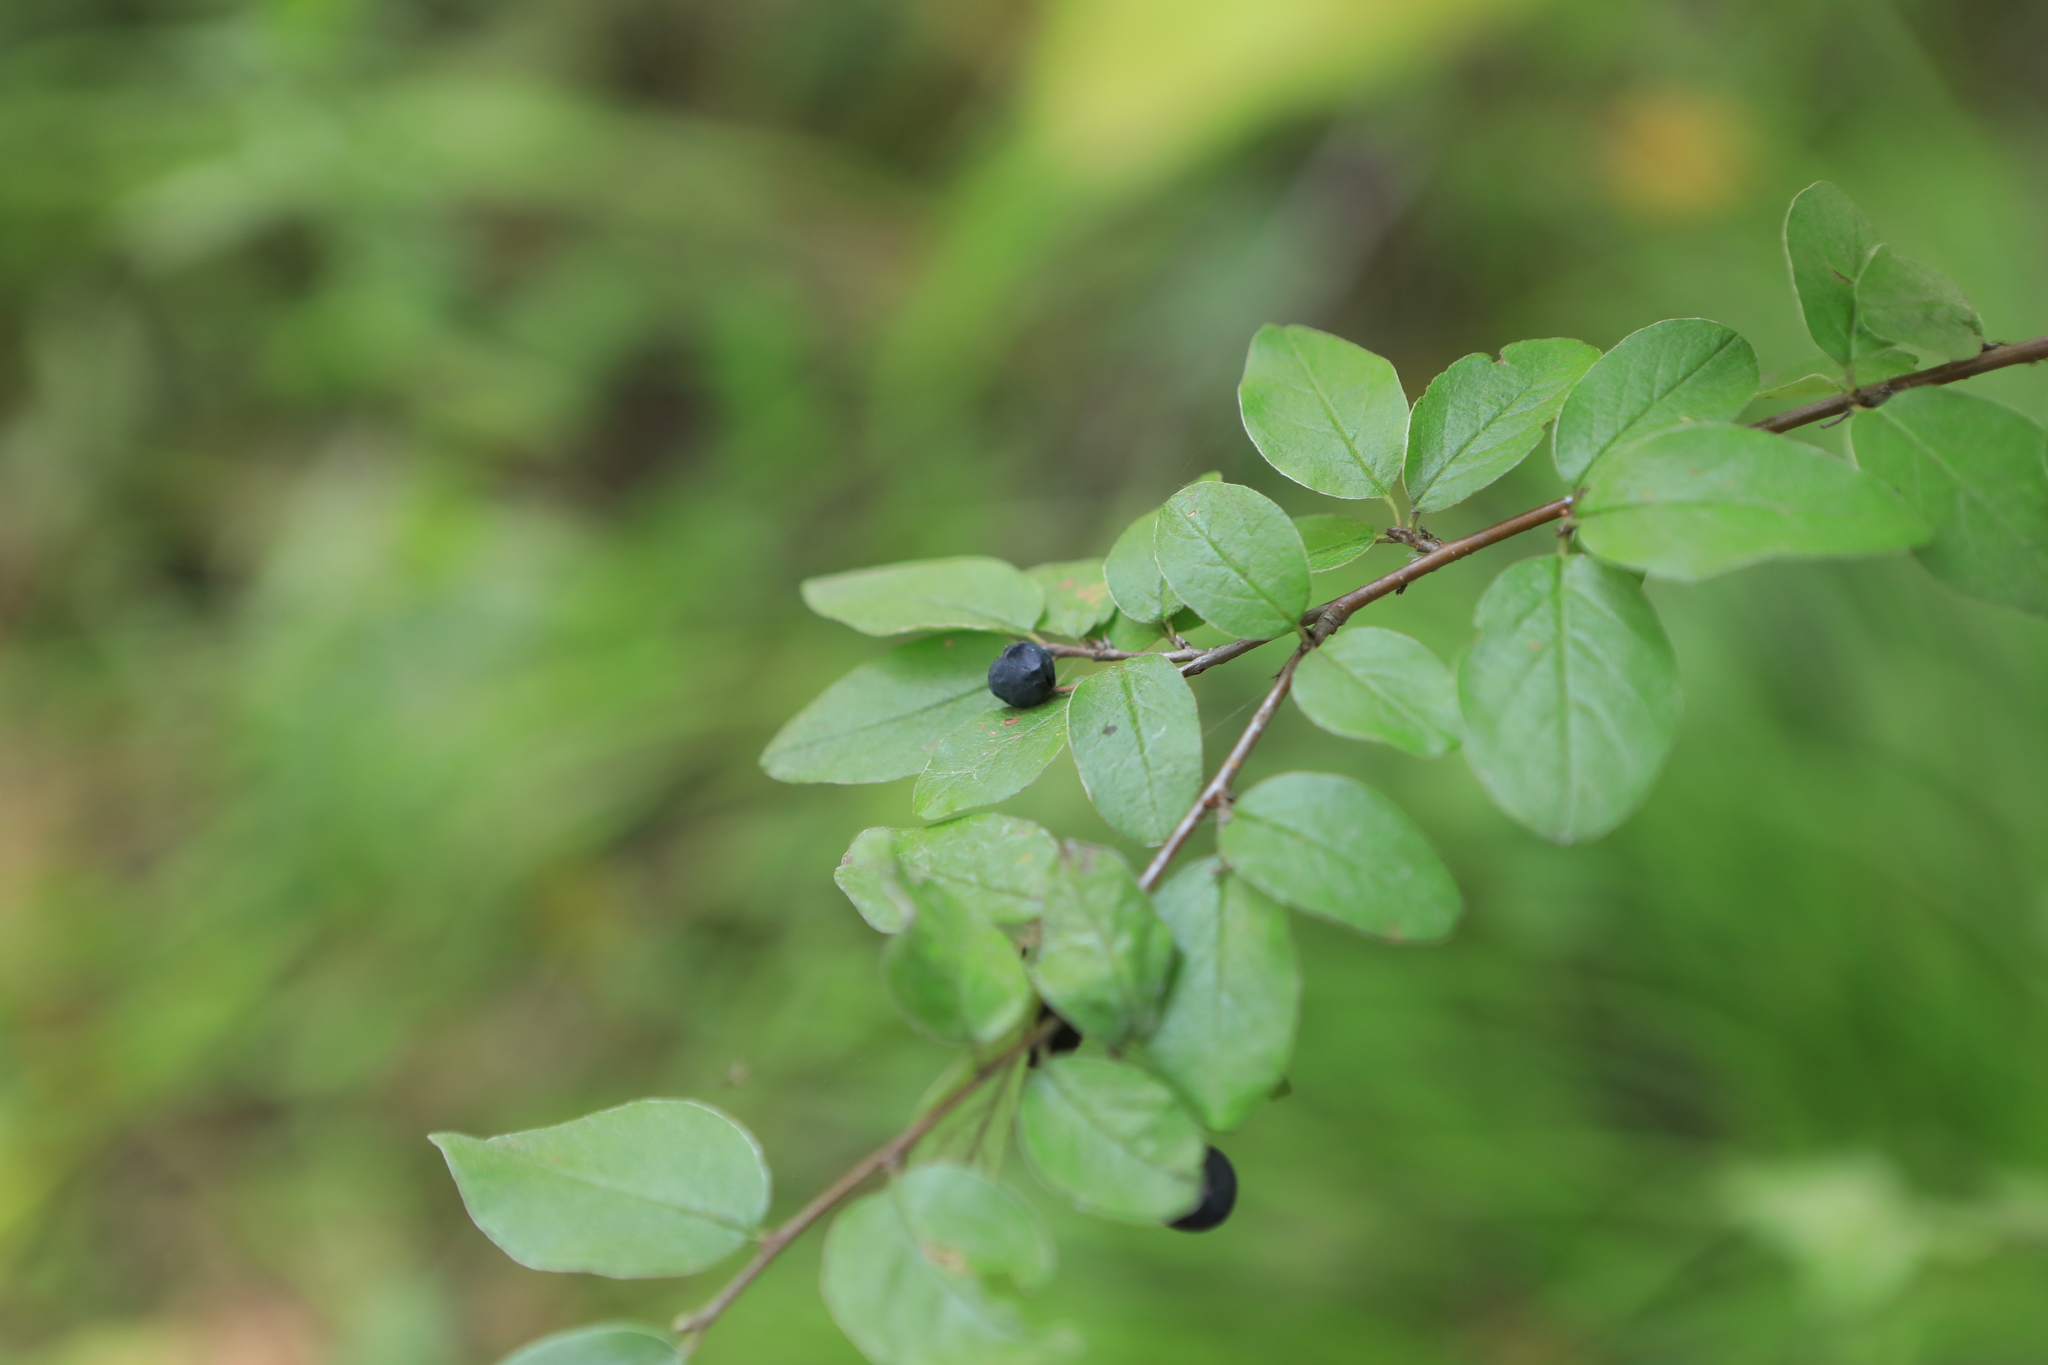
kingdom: Plantae
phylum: Tracheophyta
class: Magnoliopsida
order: Rosales
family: Rosaceae
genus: Cotoneaster
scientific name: Cotoneaster acutifolius
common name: Peking cotoneaster
